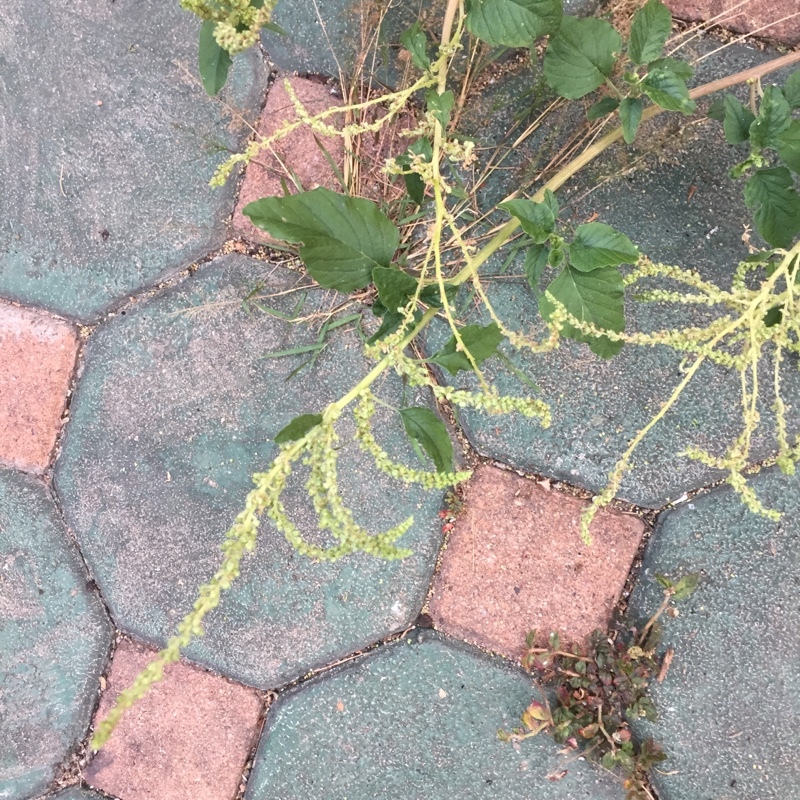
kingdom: Plantae
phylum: Tracheophyta
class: Magnoliopsida
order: Caryophyllales
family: Amaranthaceae
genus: Amaranthus
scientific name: Amaranthus viridis
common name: Slender amaranth
